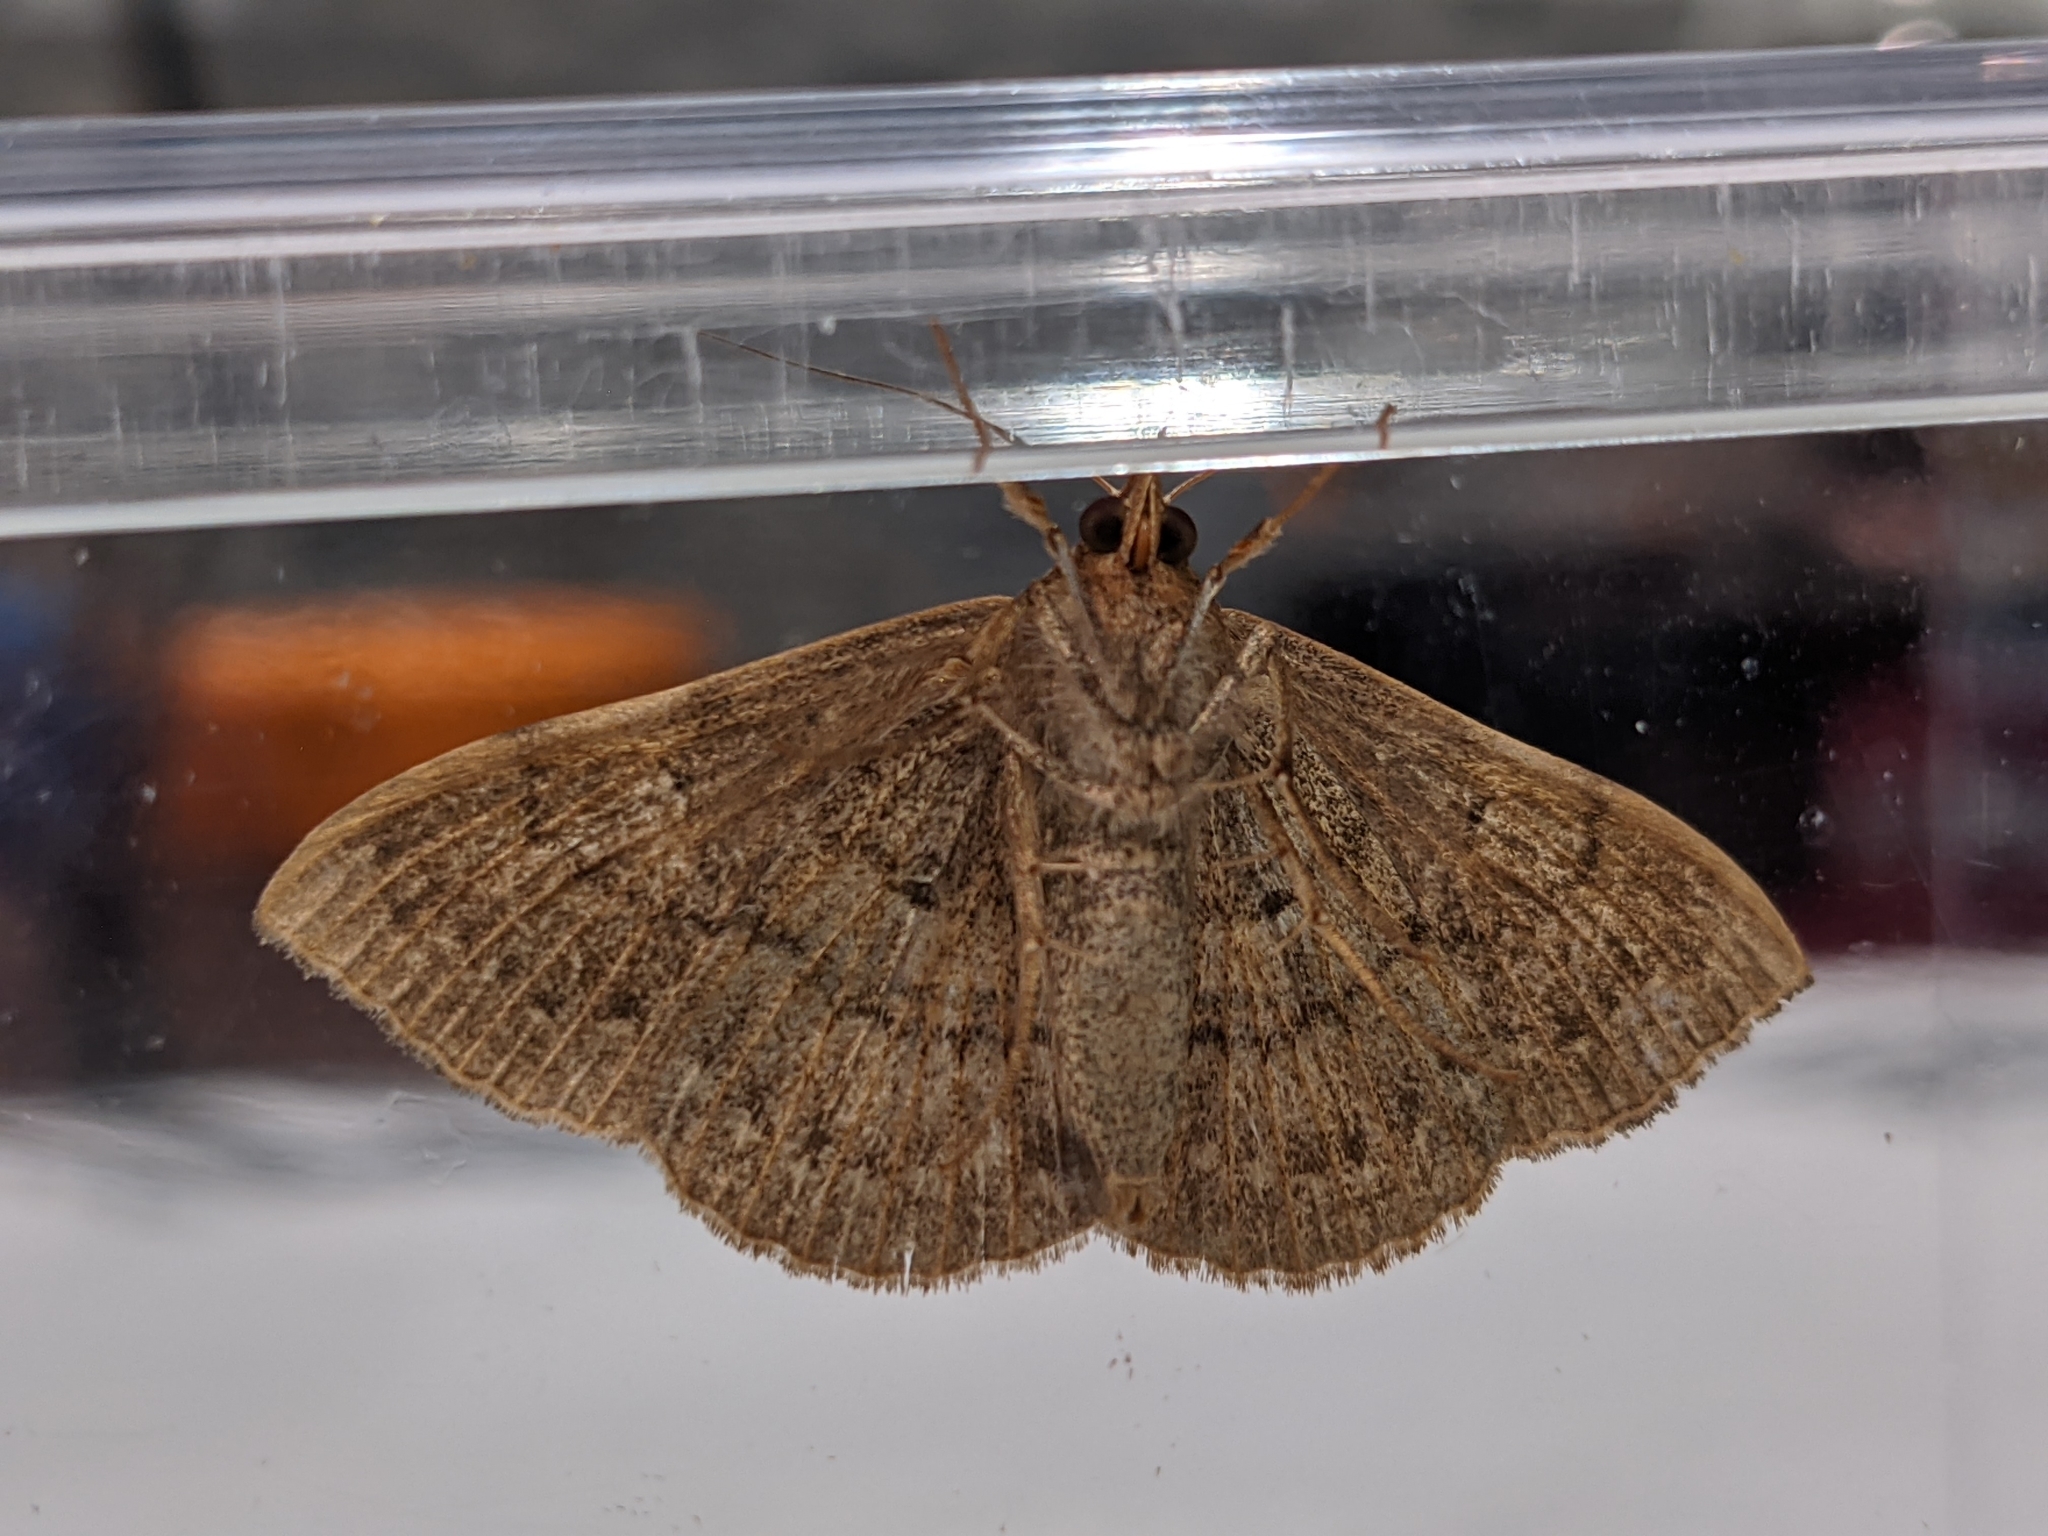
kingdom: Animalia
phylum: Arthropoda
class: Insecta
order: Lepidoptera
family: Erebidae
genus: Anticarsia
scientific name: Anticarsia gemmatalis
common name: Cutworm moth
